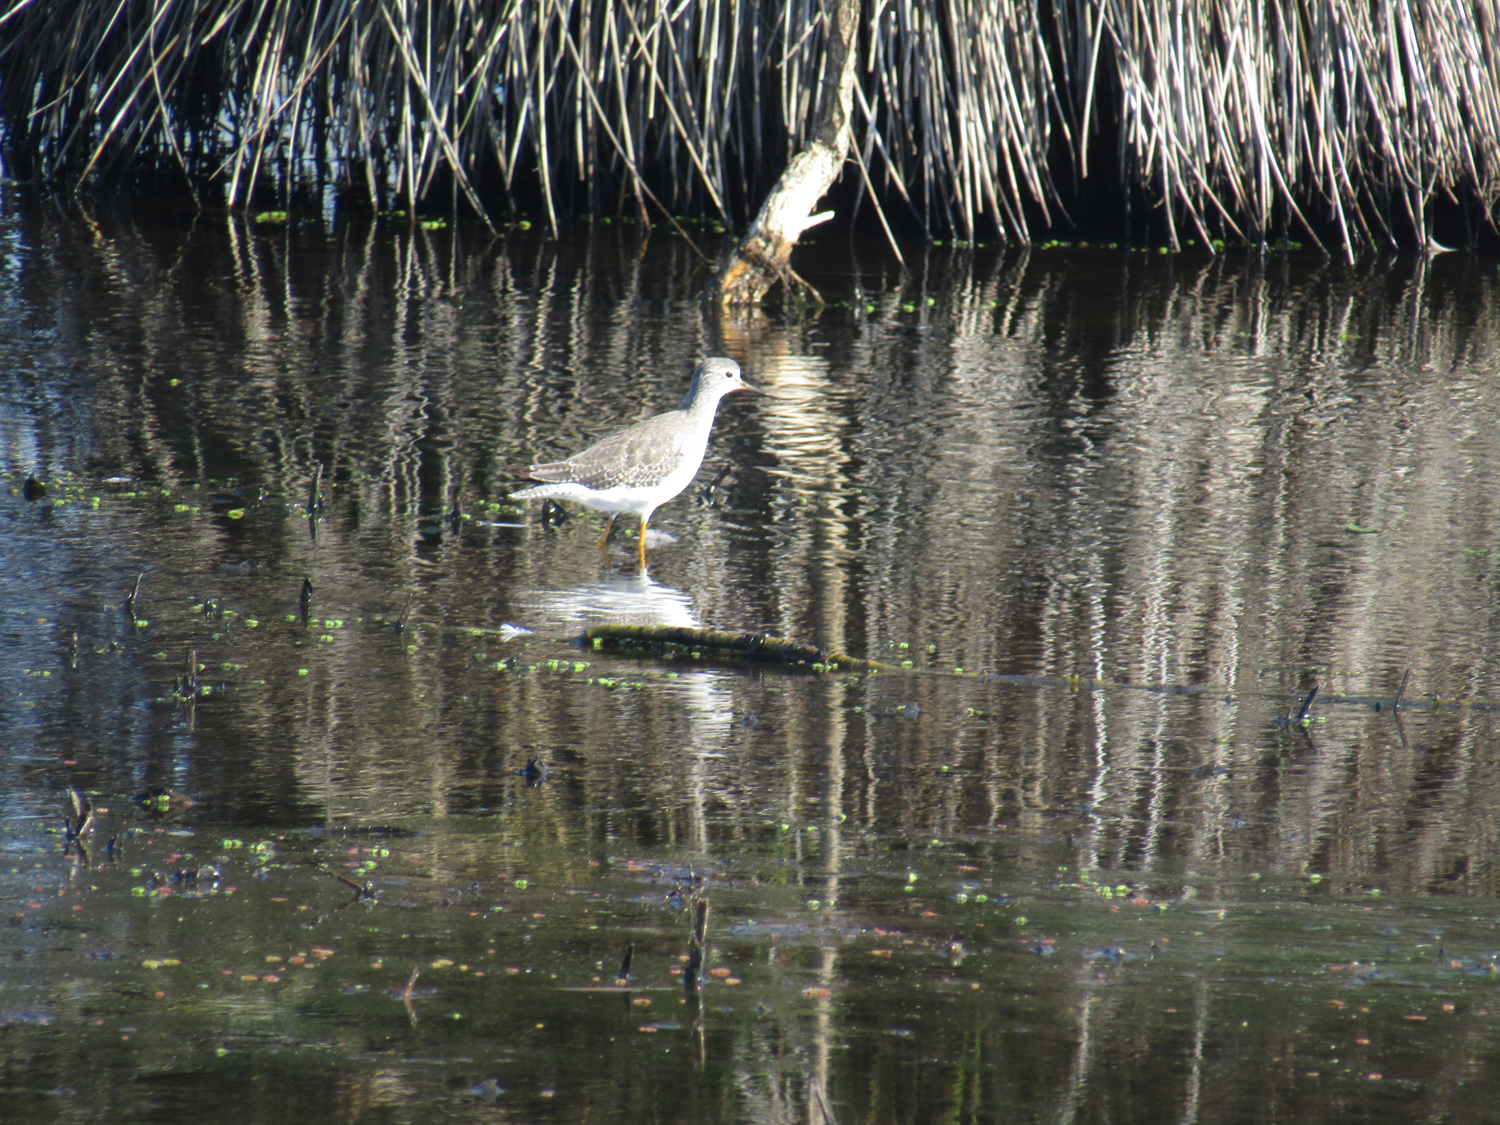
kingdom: Animalia
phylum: Chordata
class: Aves
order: Charadriiformes
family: Scolopacidae
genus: Tringa
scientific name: Tringa melanoleuca
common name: Greater yellowlegs
